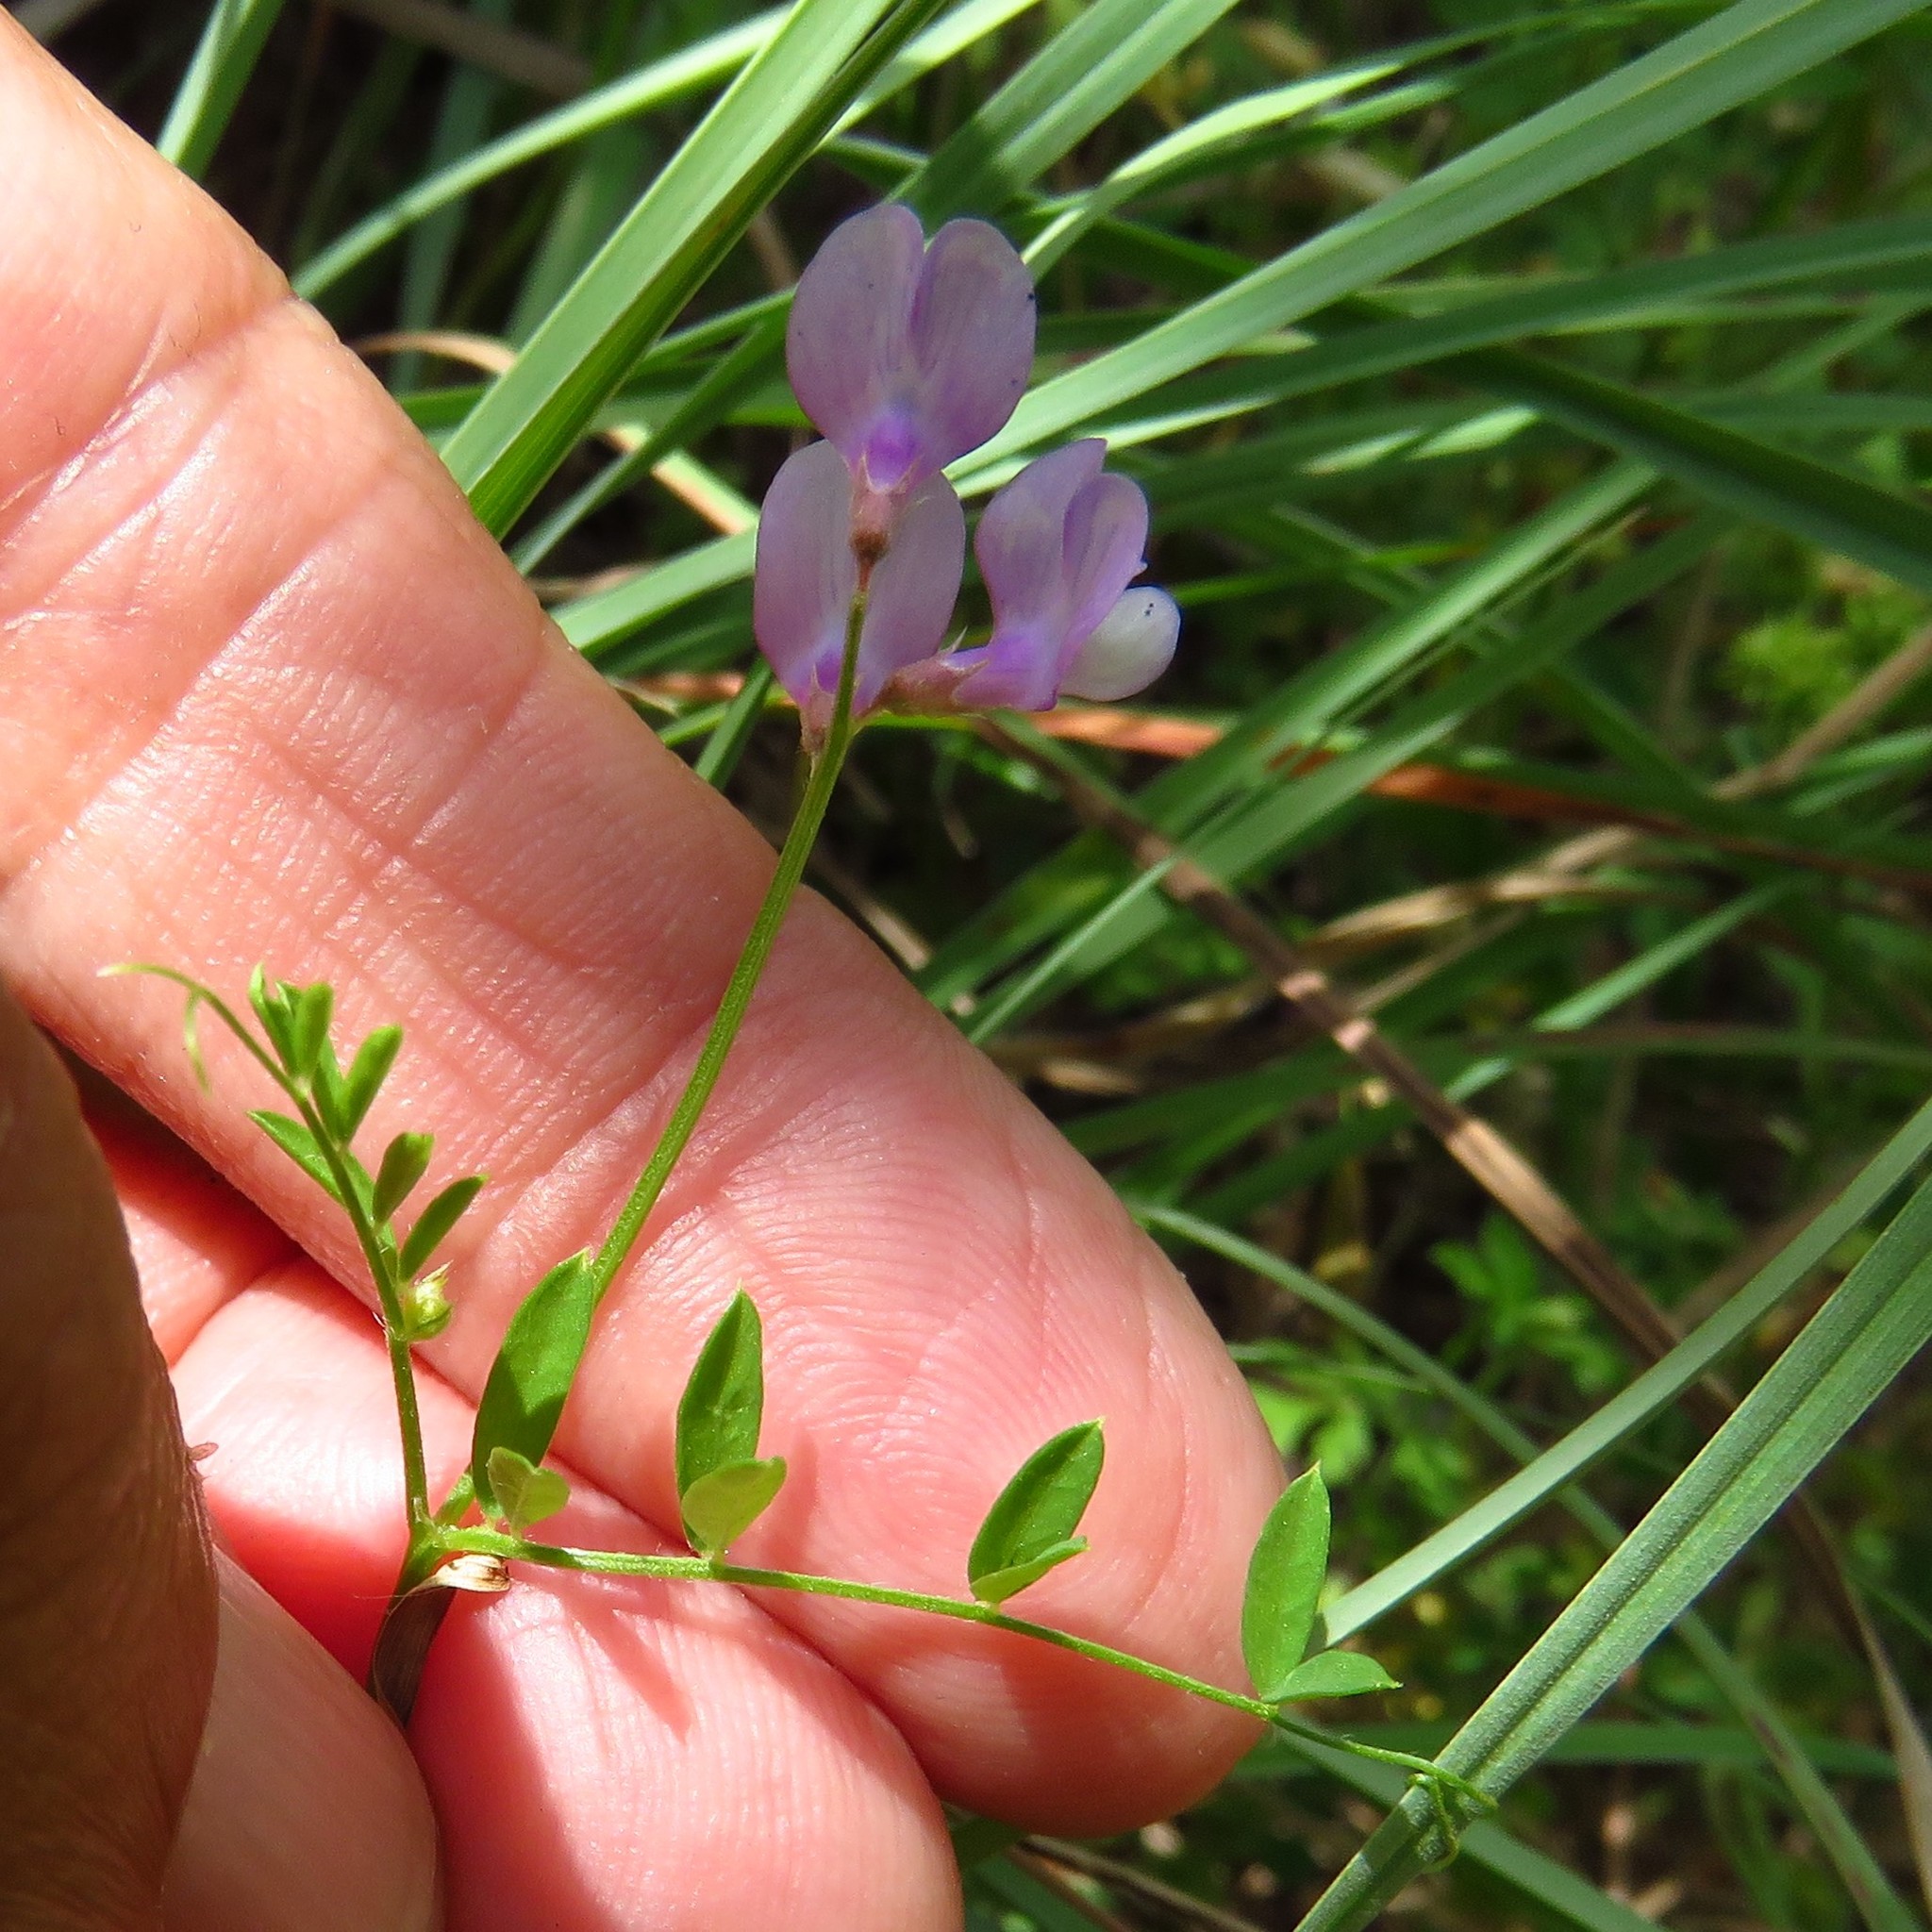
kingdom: Plantae
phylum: Tracheophyta
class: Magnoliopsida
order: Fabales
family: Fabaceae
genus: Vicia
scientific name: Vicia ludoviciana
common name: Louisiana vetch
